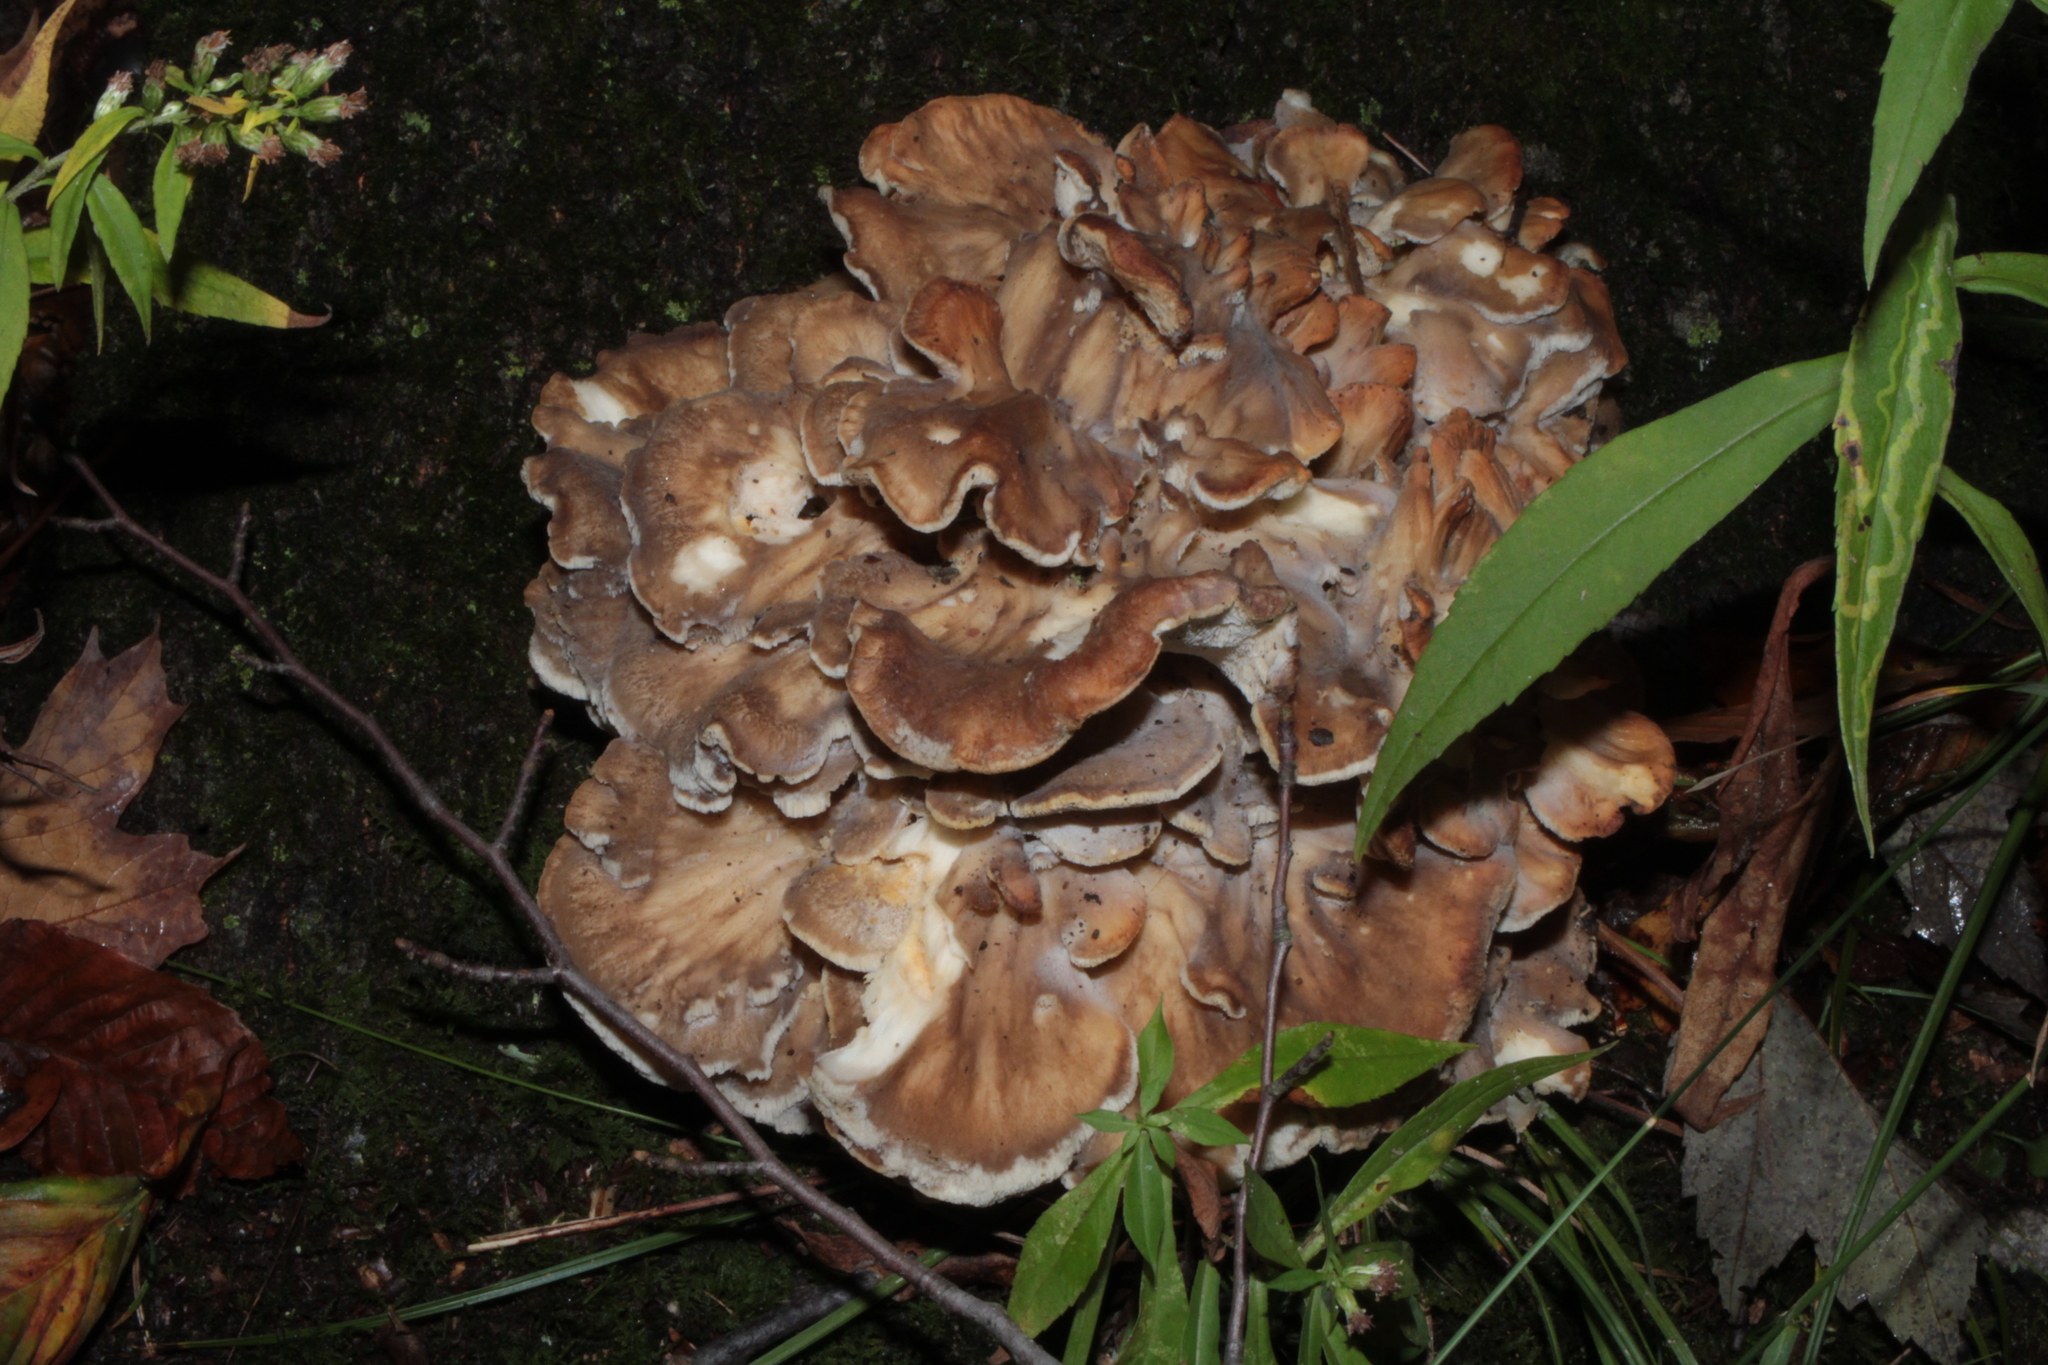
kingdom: Fungi
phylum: Basidiomycota
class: Agaricomycetes
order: Polyporales
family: Grifolaceae
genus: Grifola
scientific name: Grifola frondosa
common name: Hen of the woods
